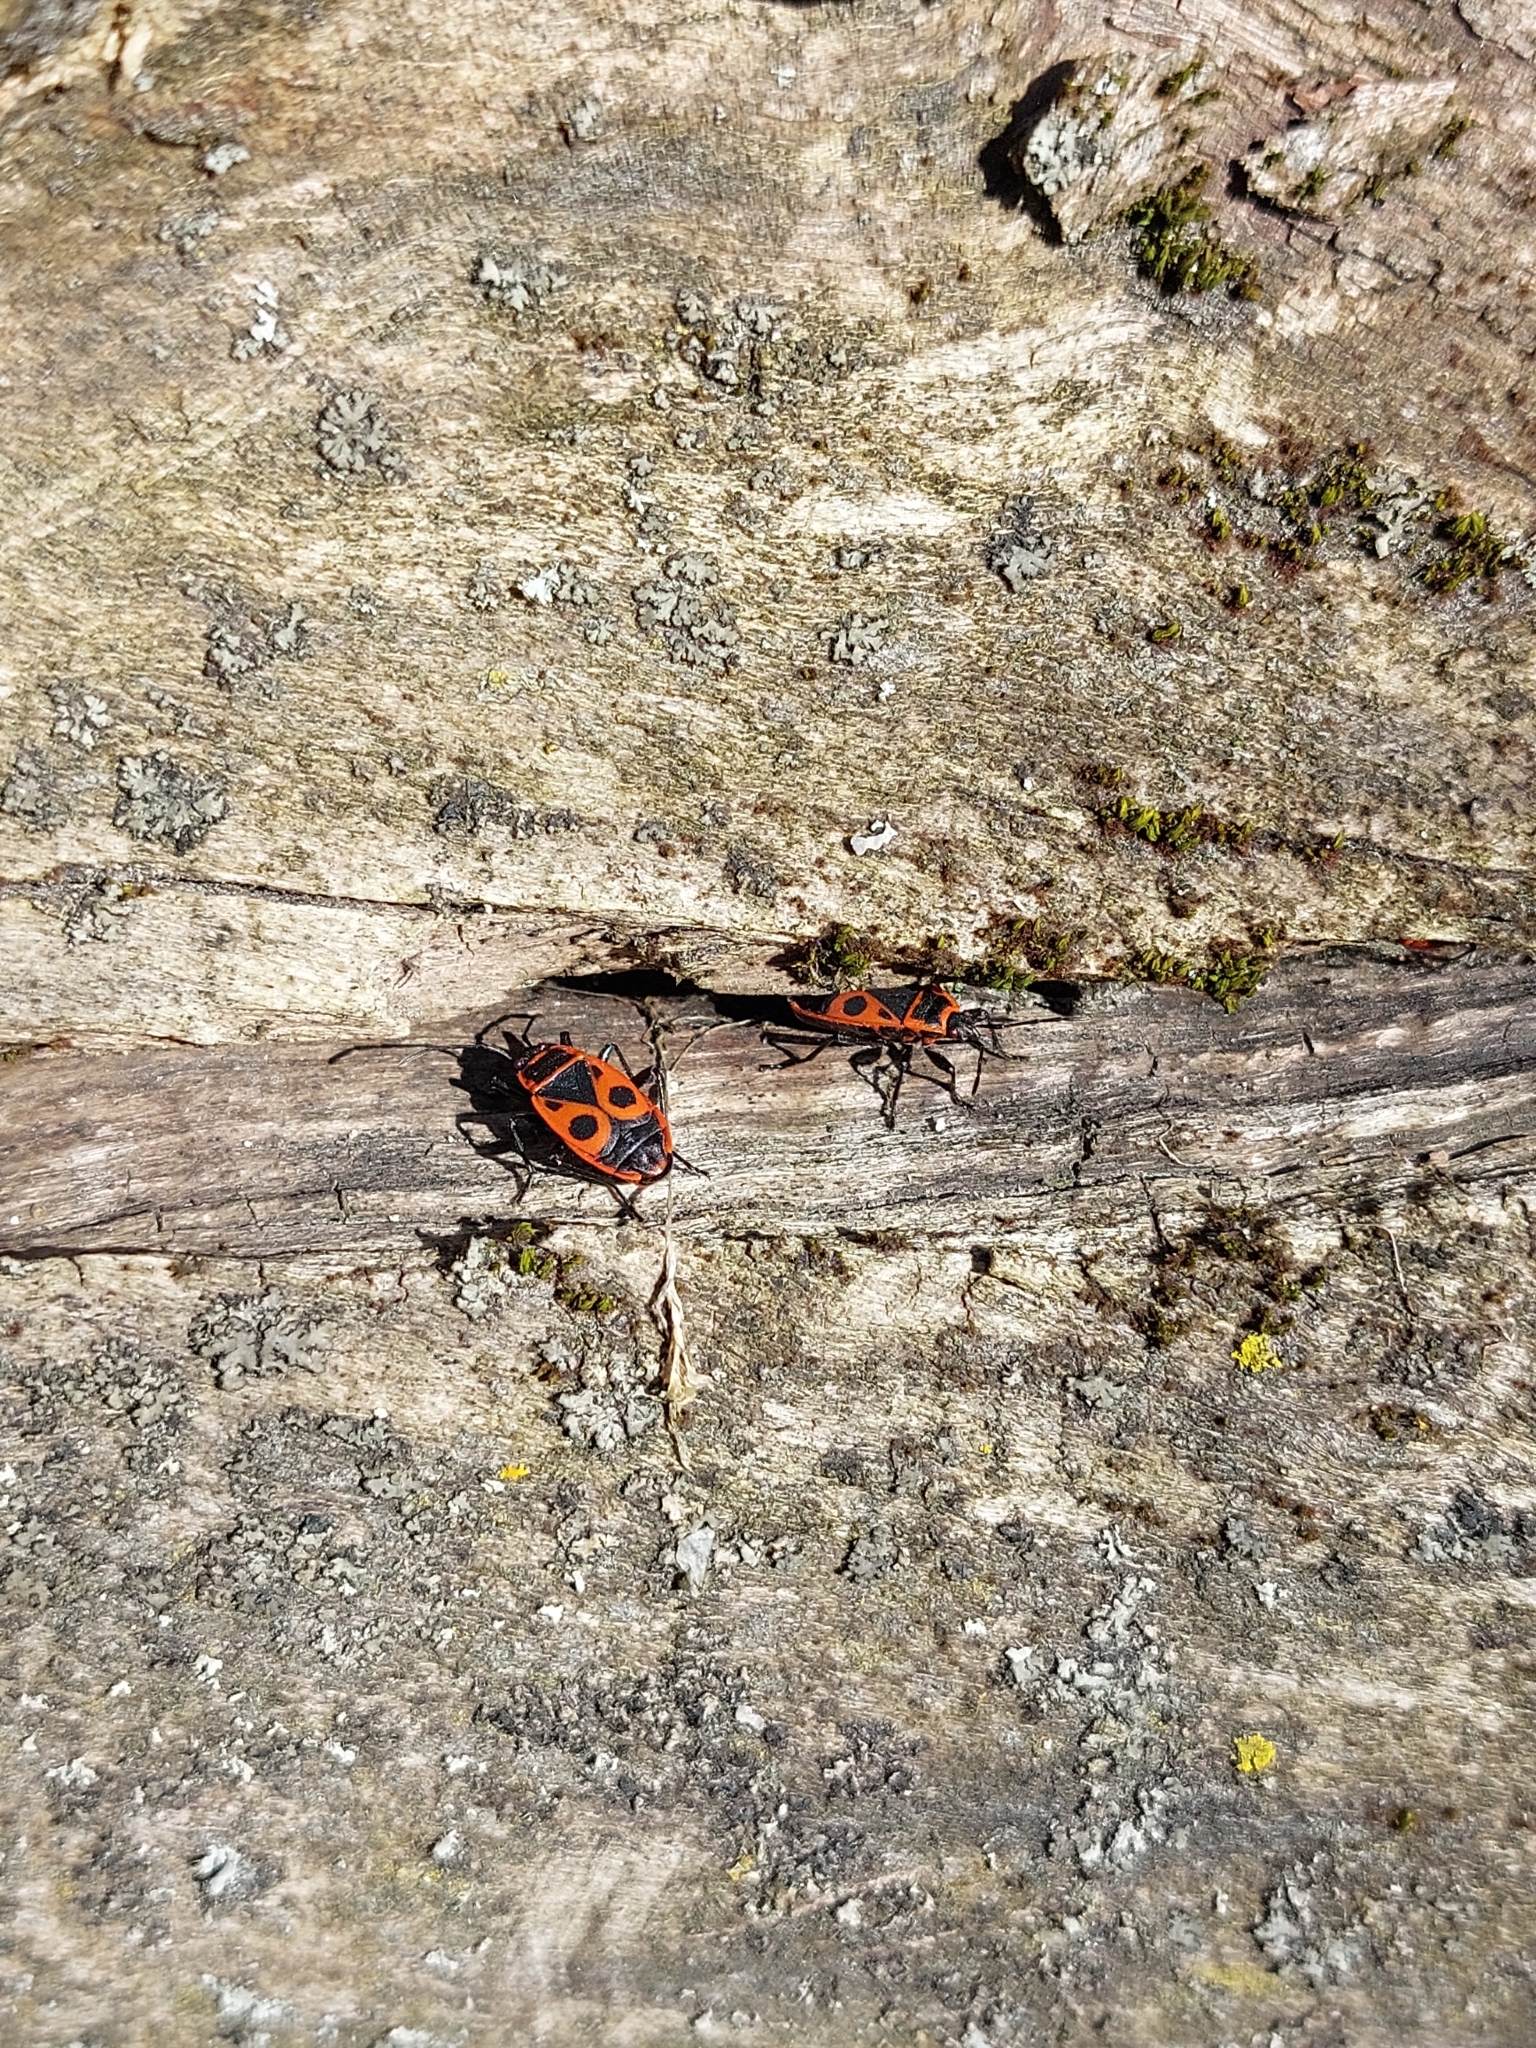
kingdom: Animalia
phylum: Arthropoda
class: Insecta
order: Hemiptera
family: Pyrrhocoridae
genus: Pyrrhocoris
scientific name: Pyrrhocoris apterus
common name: Firebug
